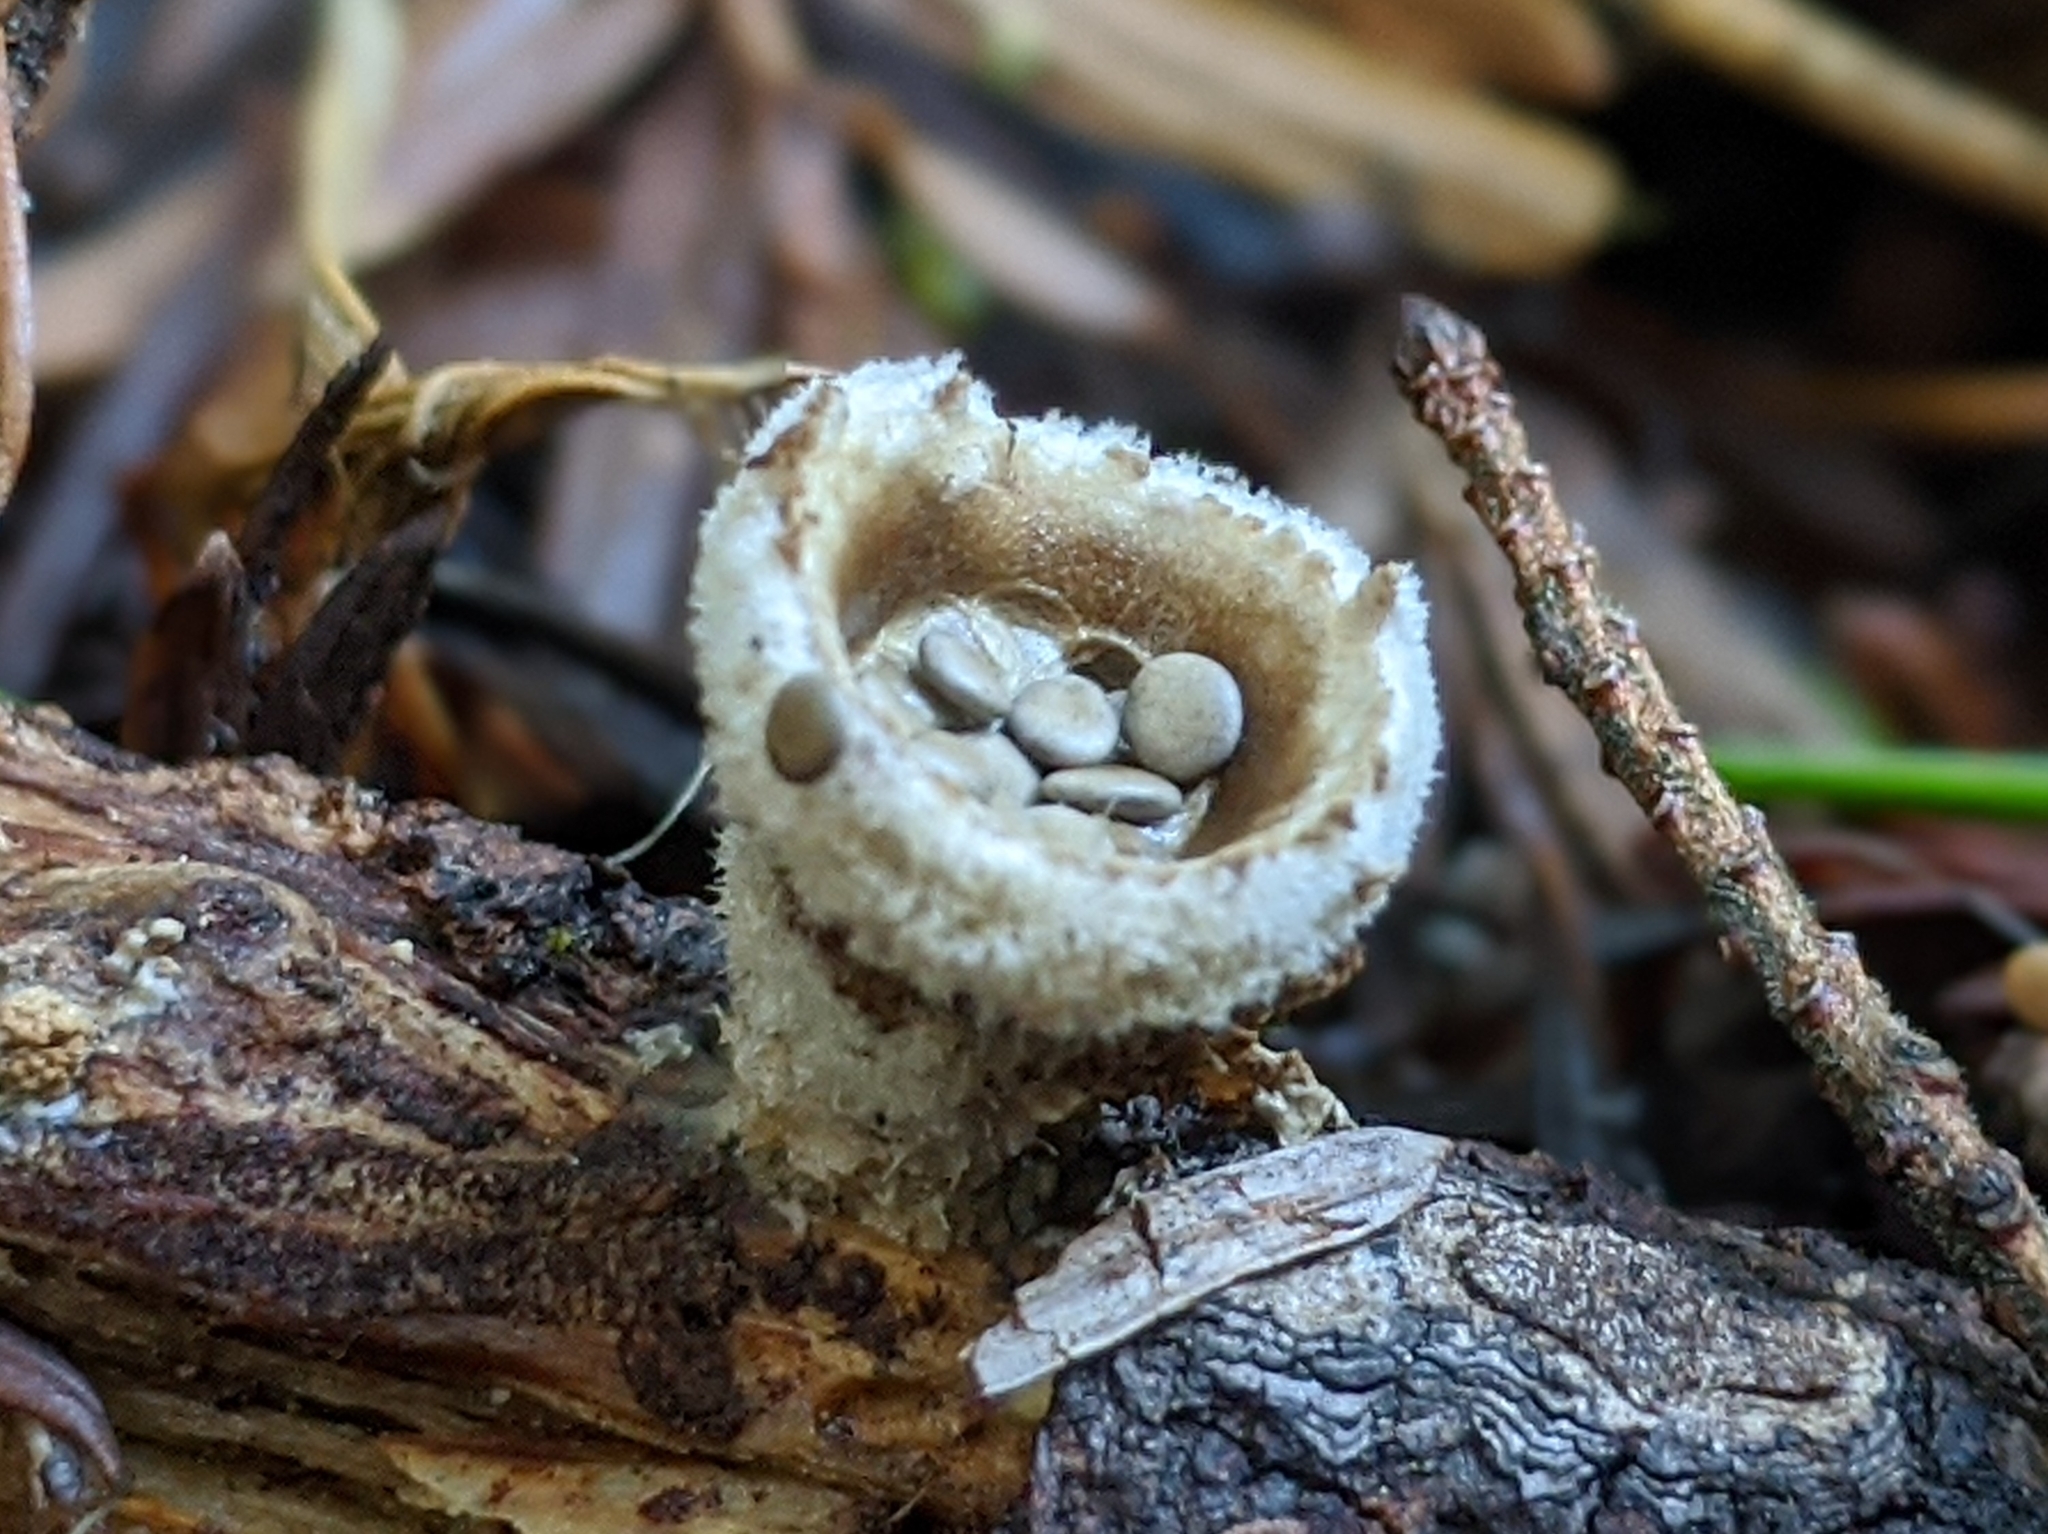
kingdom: Fungi
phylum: Basidiomycota
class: Agaricomycetes
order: Agaricales
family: Agaricaceae
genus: Nidula
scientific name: Nidula candida
